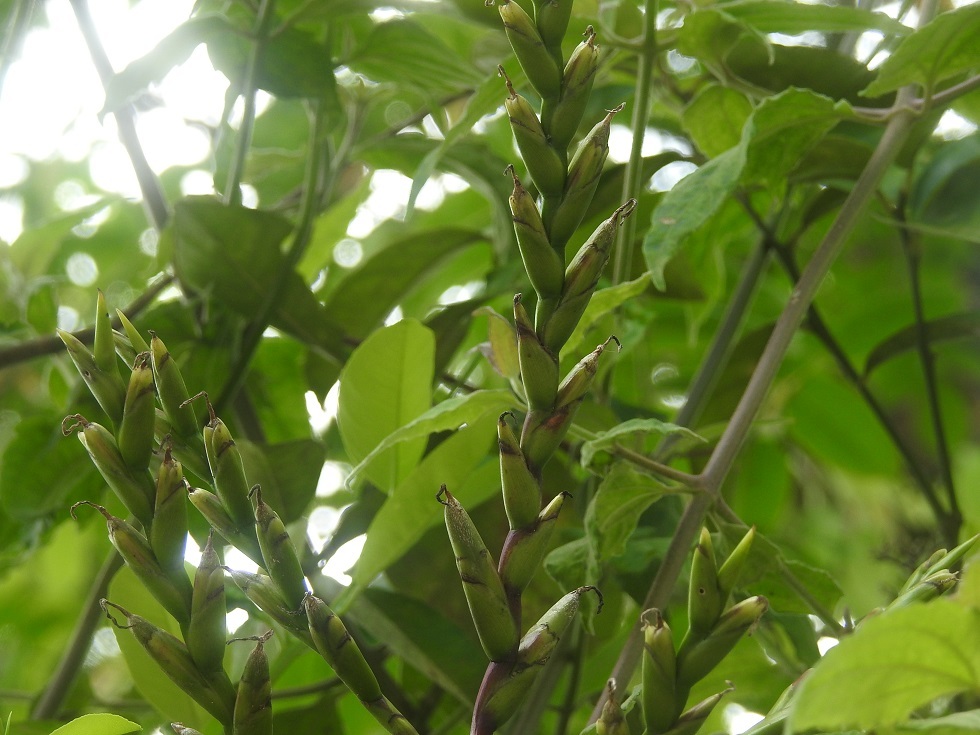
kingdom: Plantae
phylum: Tracheophyta
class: Liliopsida
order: Poales
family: Bromeliaceae
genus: Tillandsia
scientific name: Tillandsia limbata
